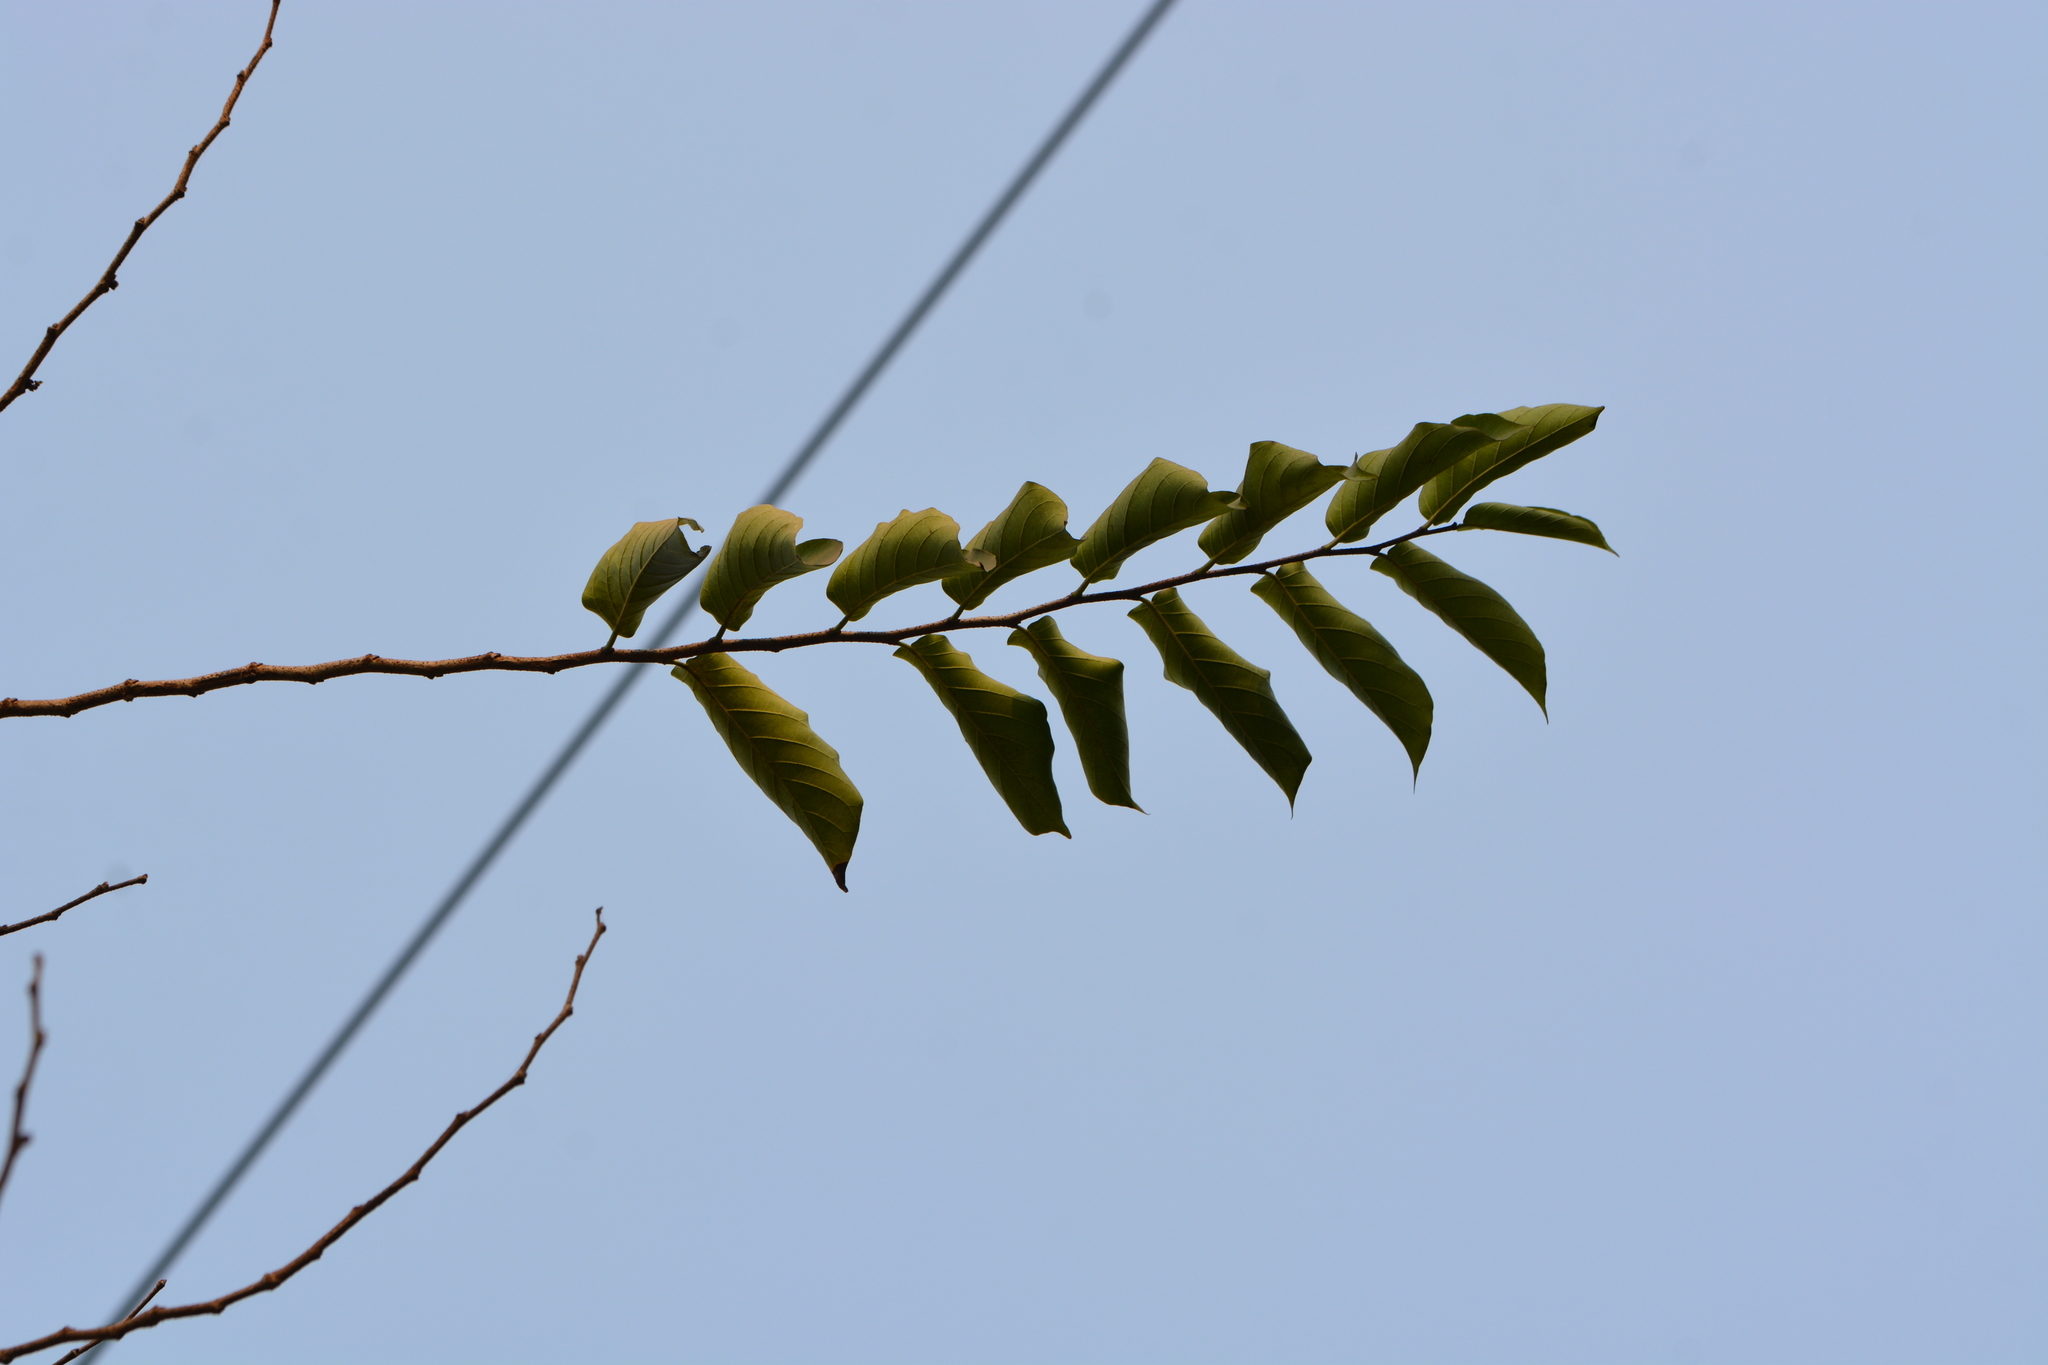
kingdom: Plantae
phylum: Tracheophyta
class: Magnoliopsida
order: Rosales
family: Ulmaceae
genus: Holoptelea
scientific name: Holoptelea integrifolia
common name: Indian-elm
